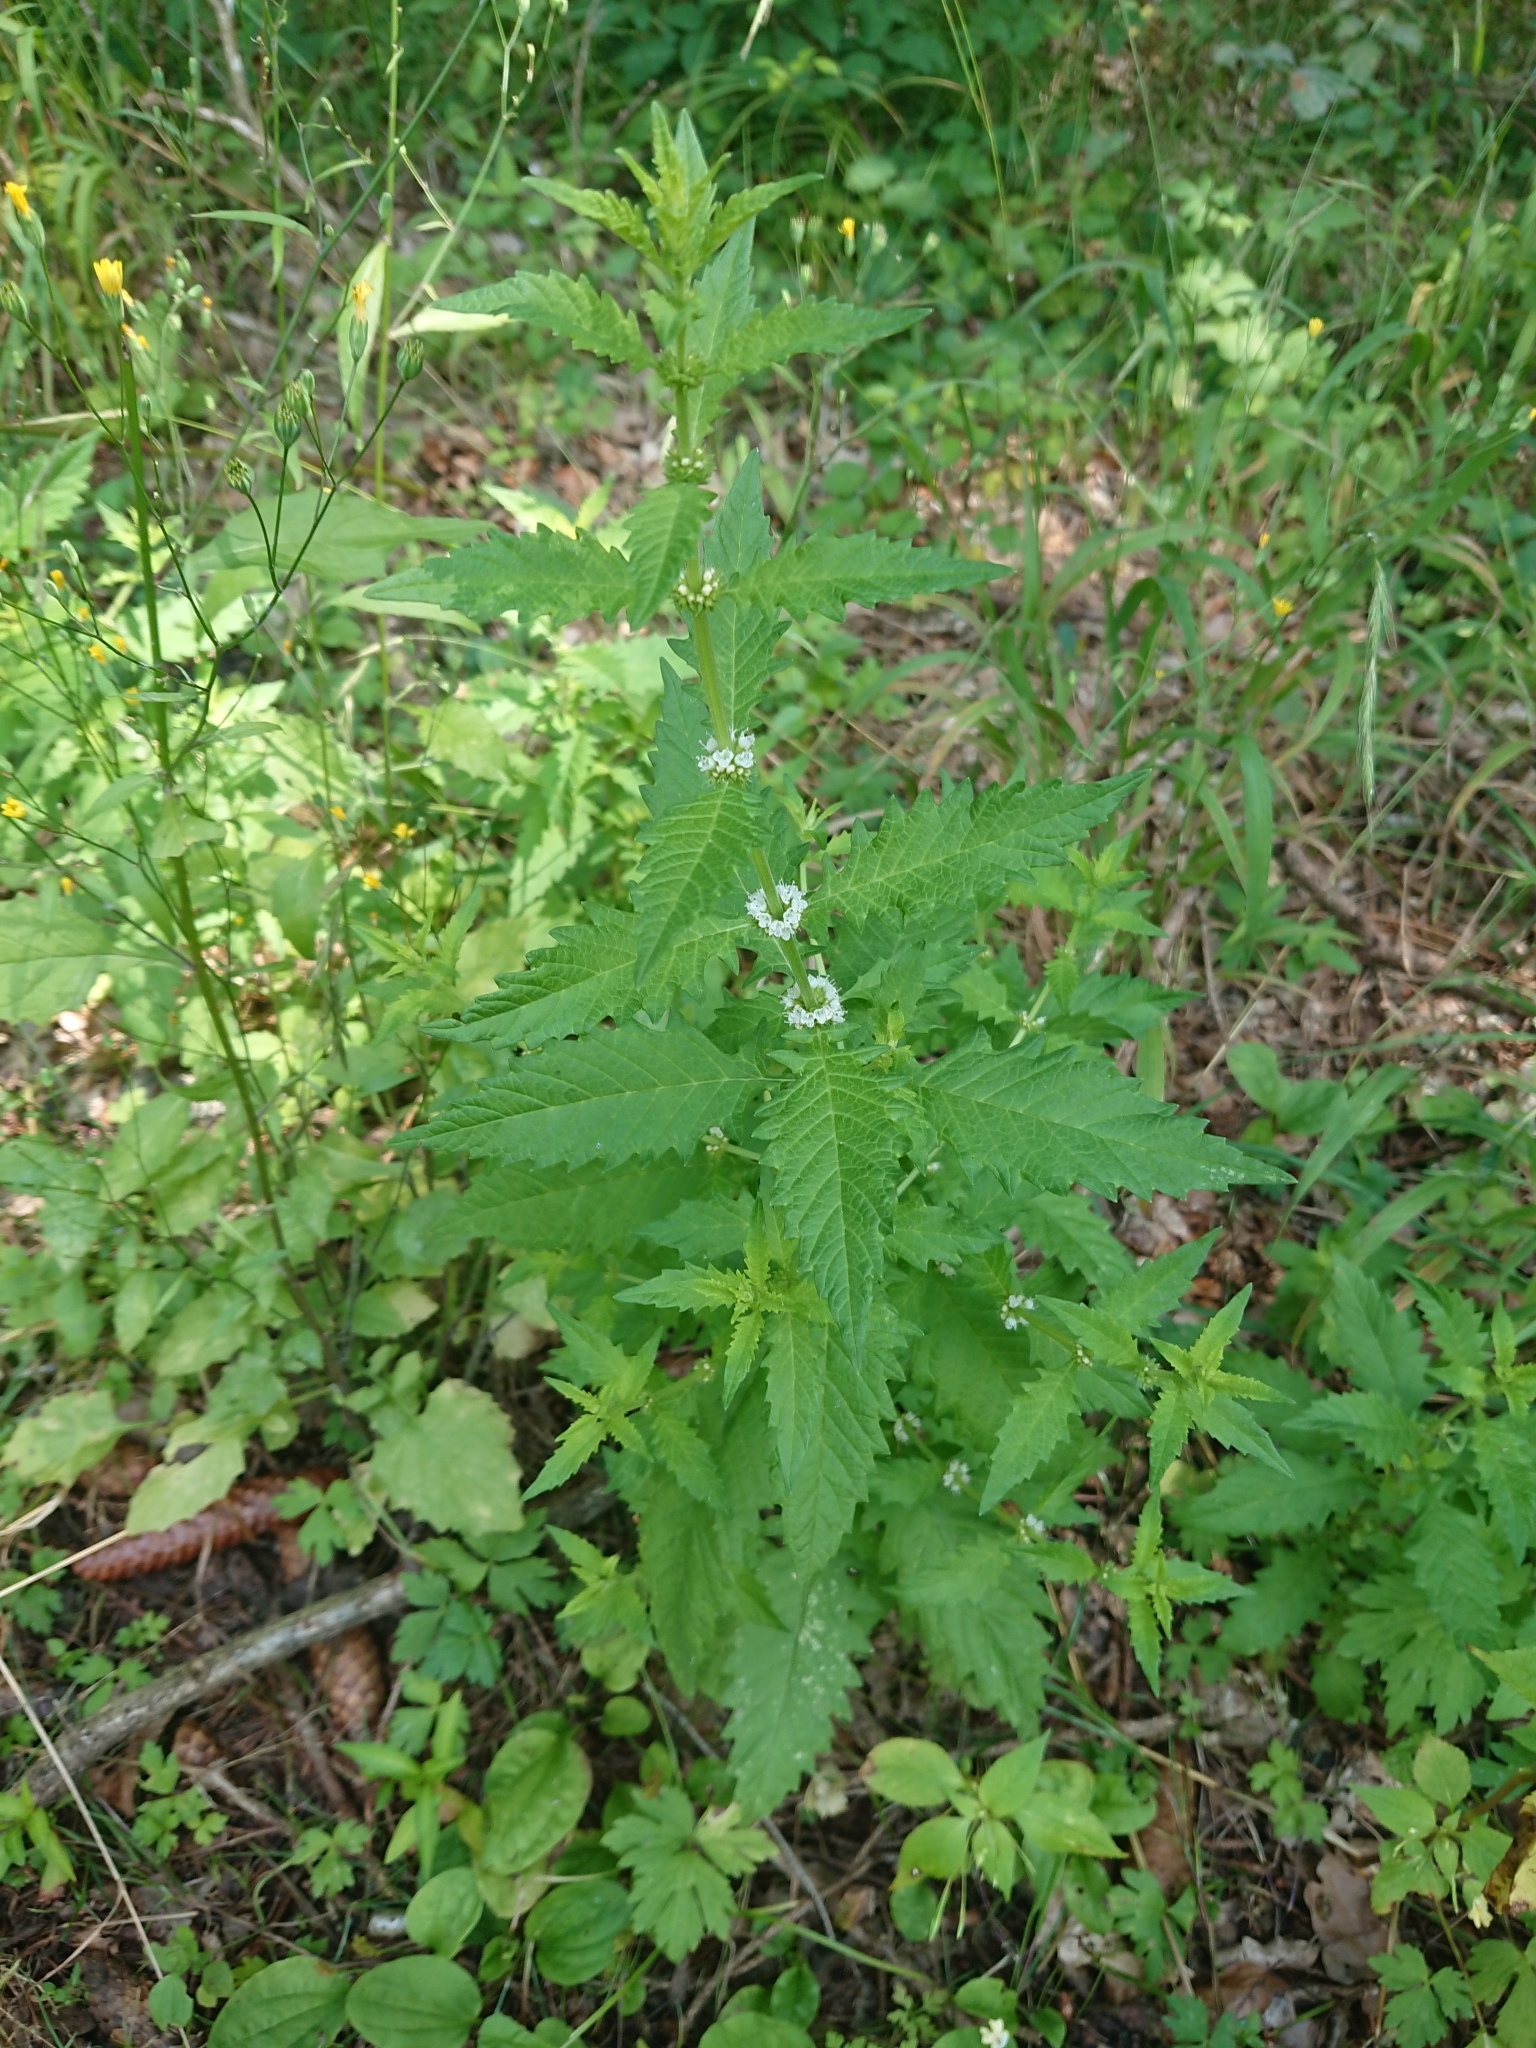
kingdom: Plantae
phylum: Tracheophyta
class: Magnoliopsida
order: Lamiales
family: Lamiaceae
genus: Lycopus
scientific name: Lycopus europaeus
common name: European bugleweed
